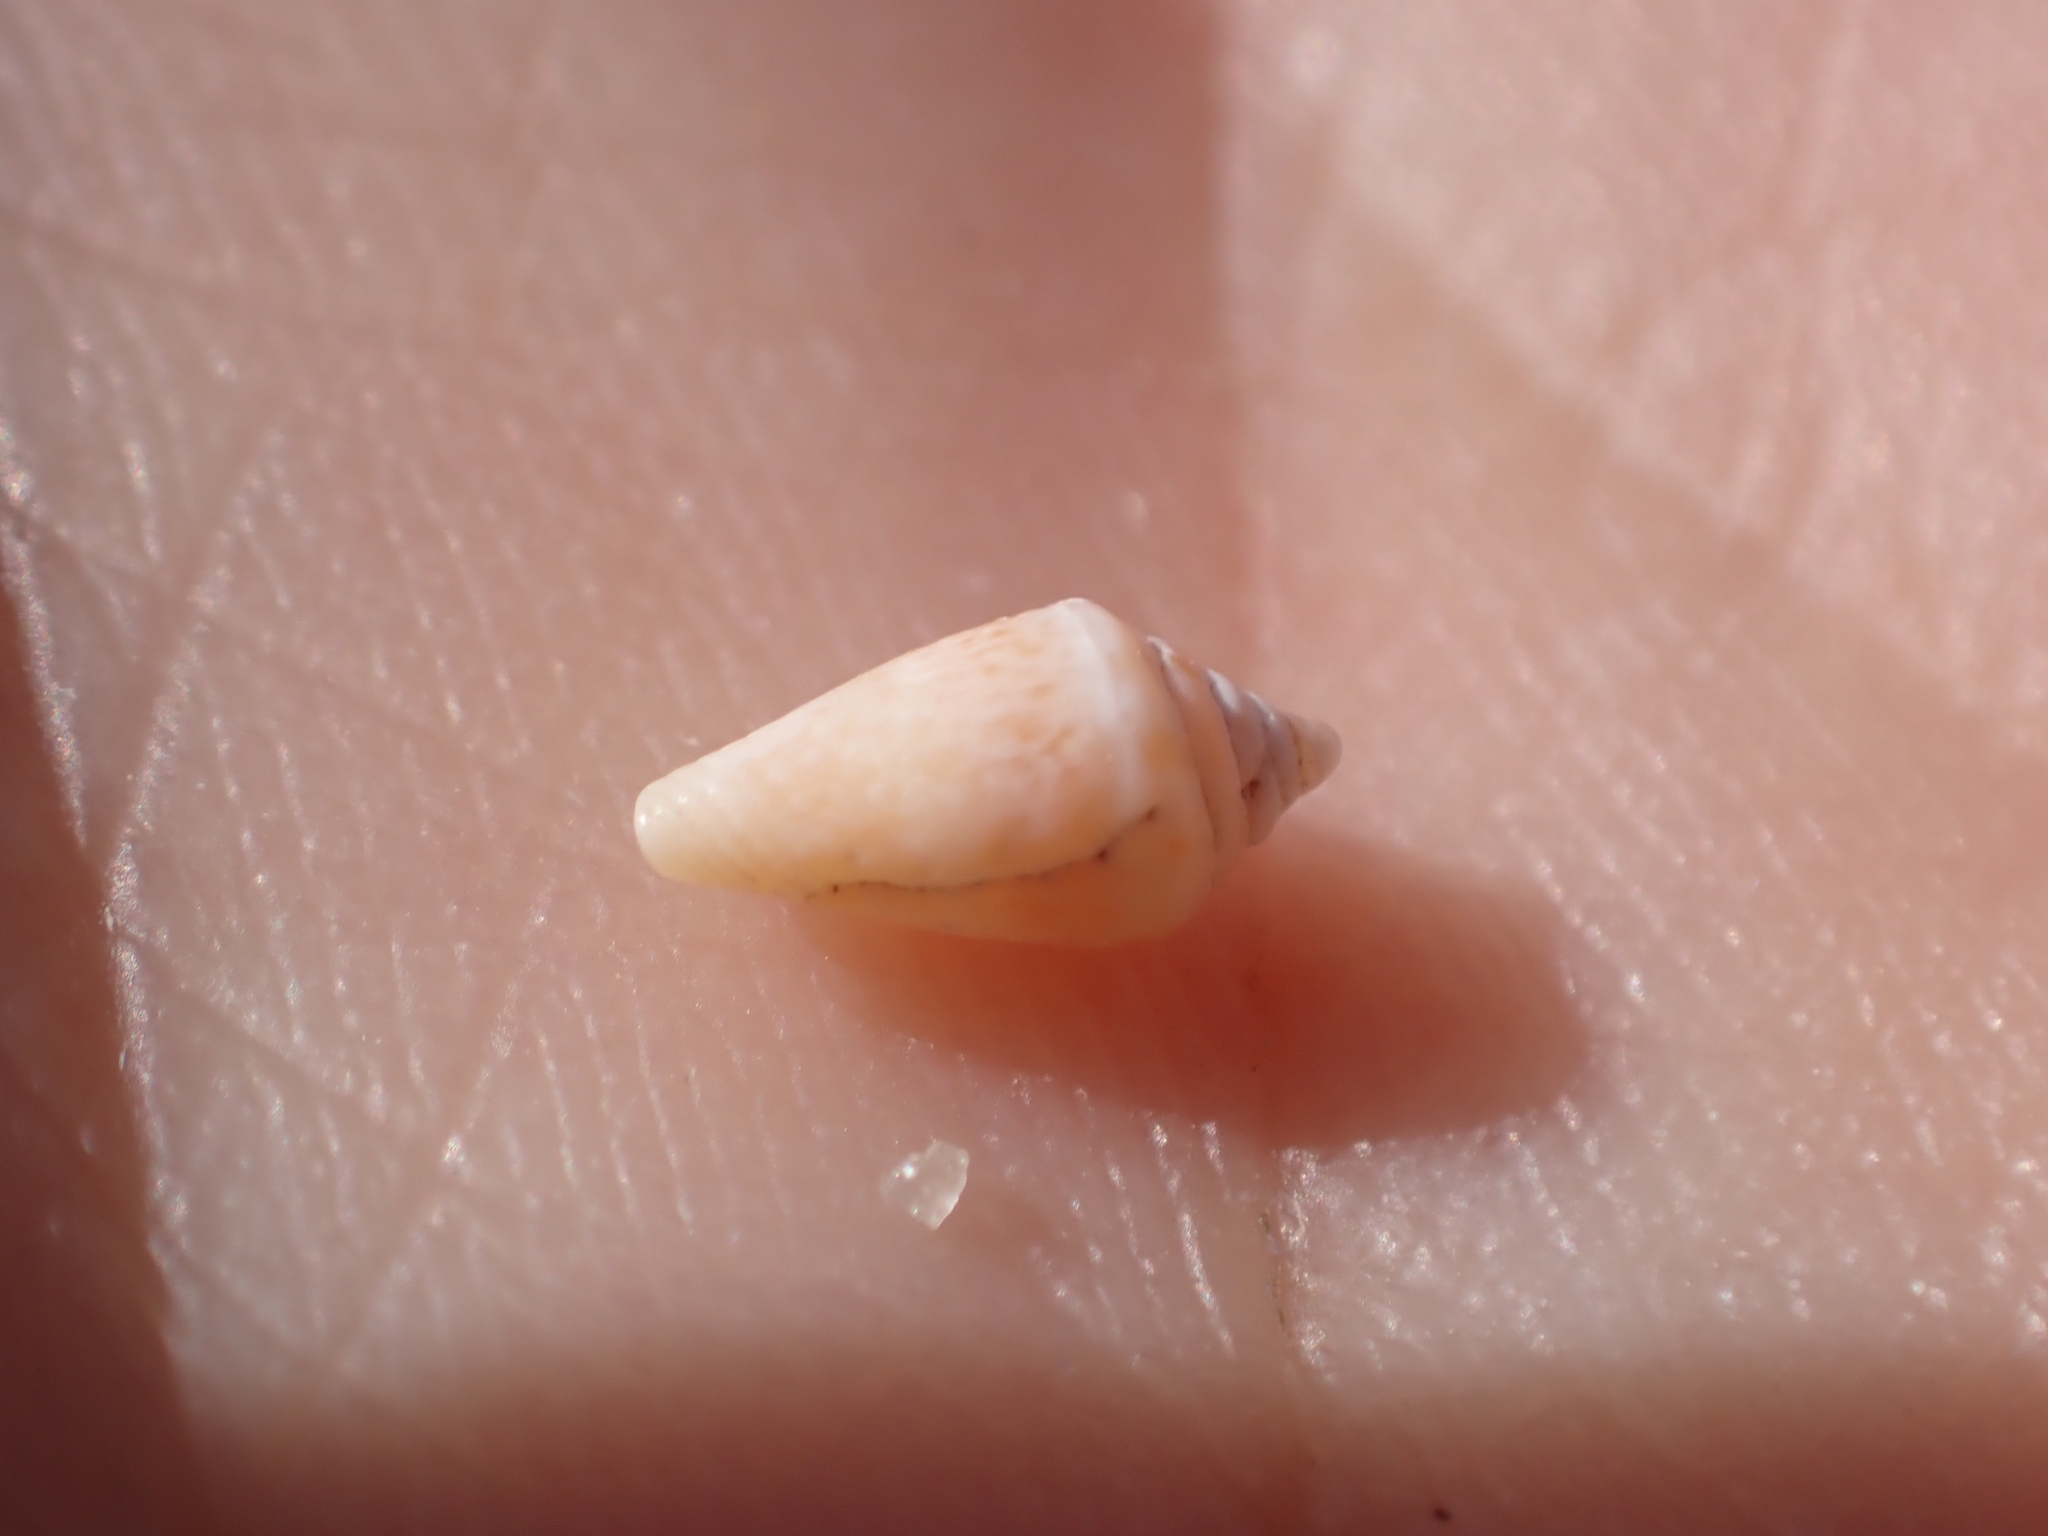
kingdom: Animalia
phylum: Mollusca
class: Gastropoda
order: Neogastropoda
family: Conidae
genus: Conus
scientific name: Conus ventricosus
